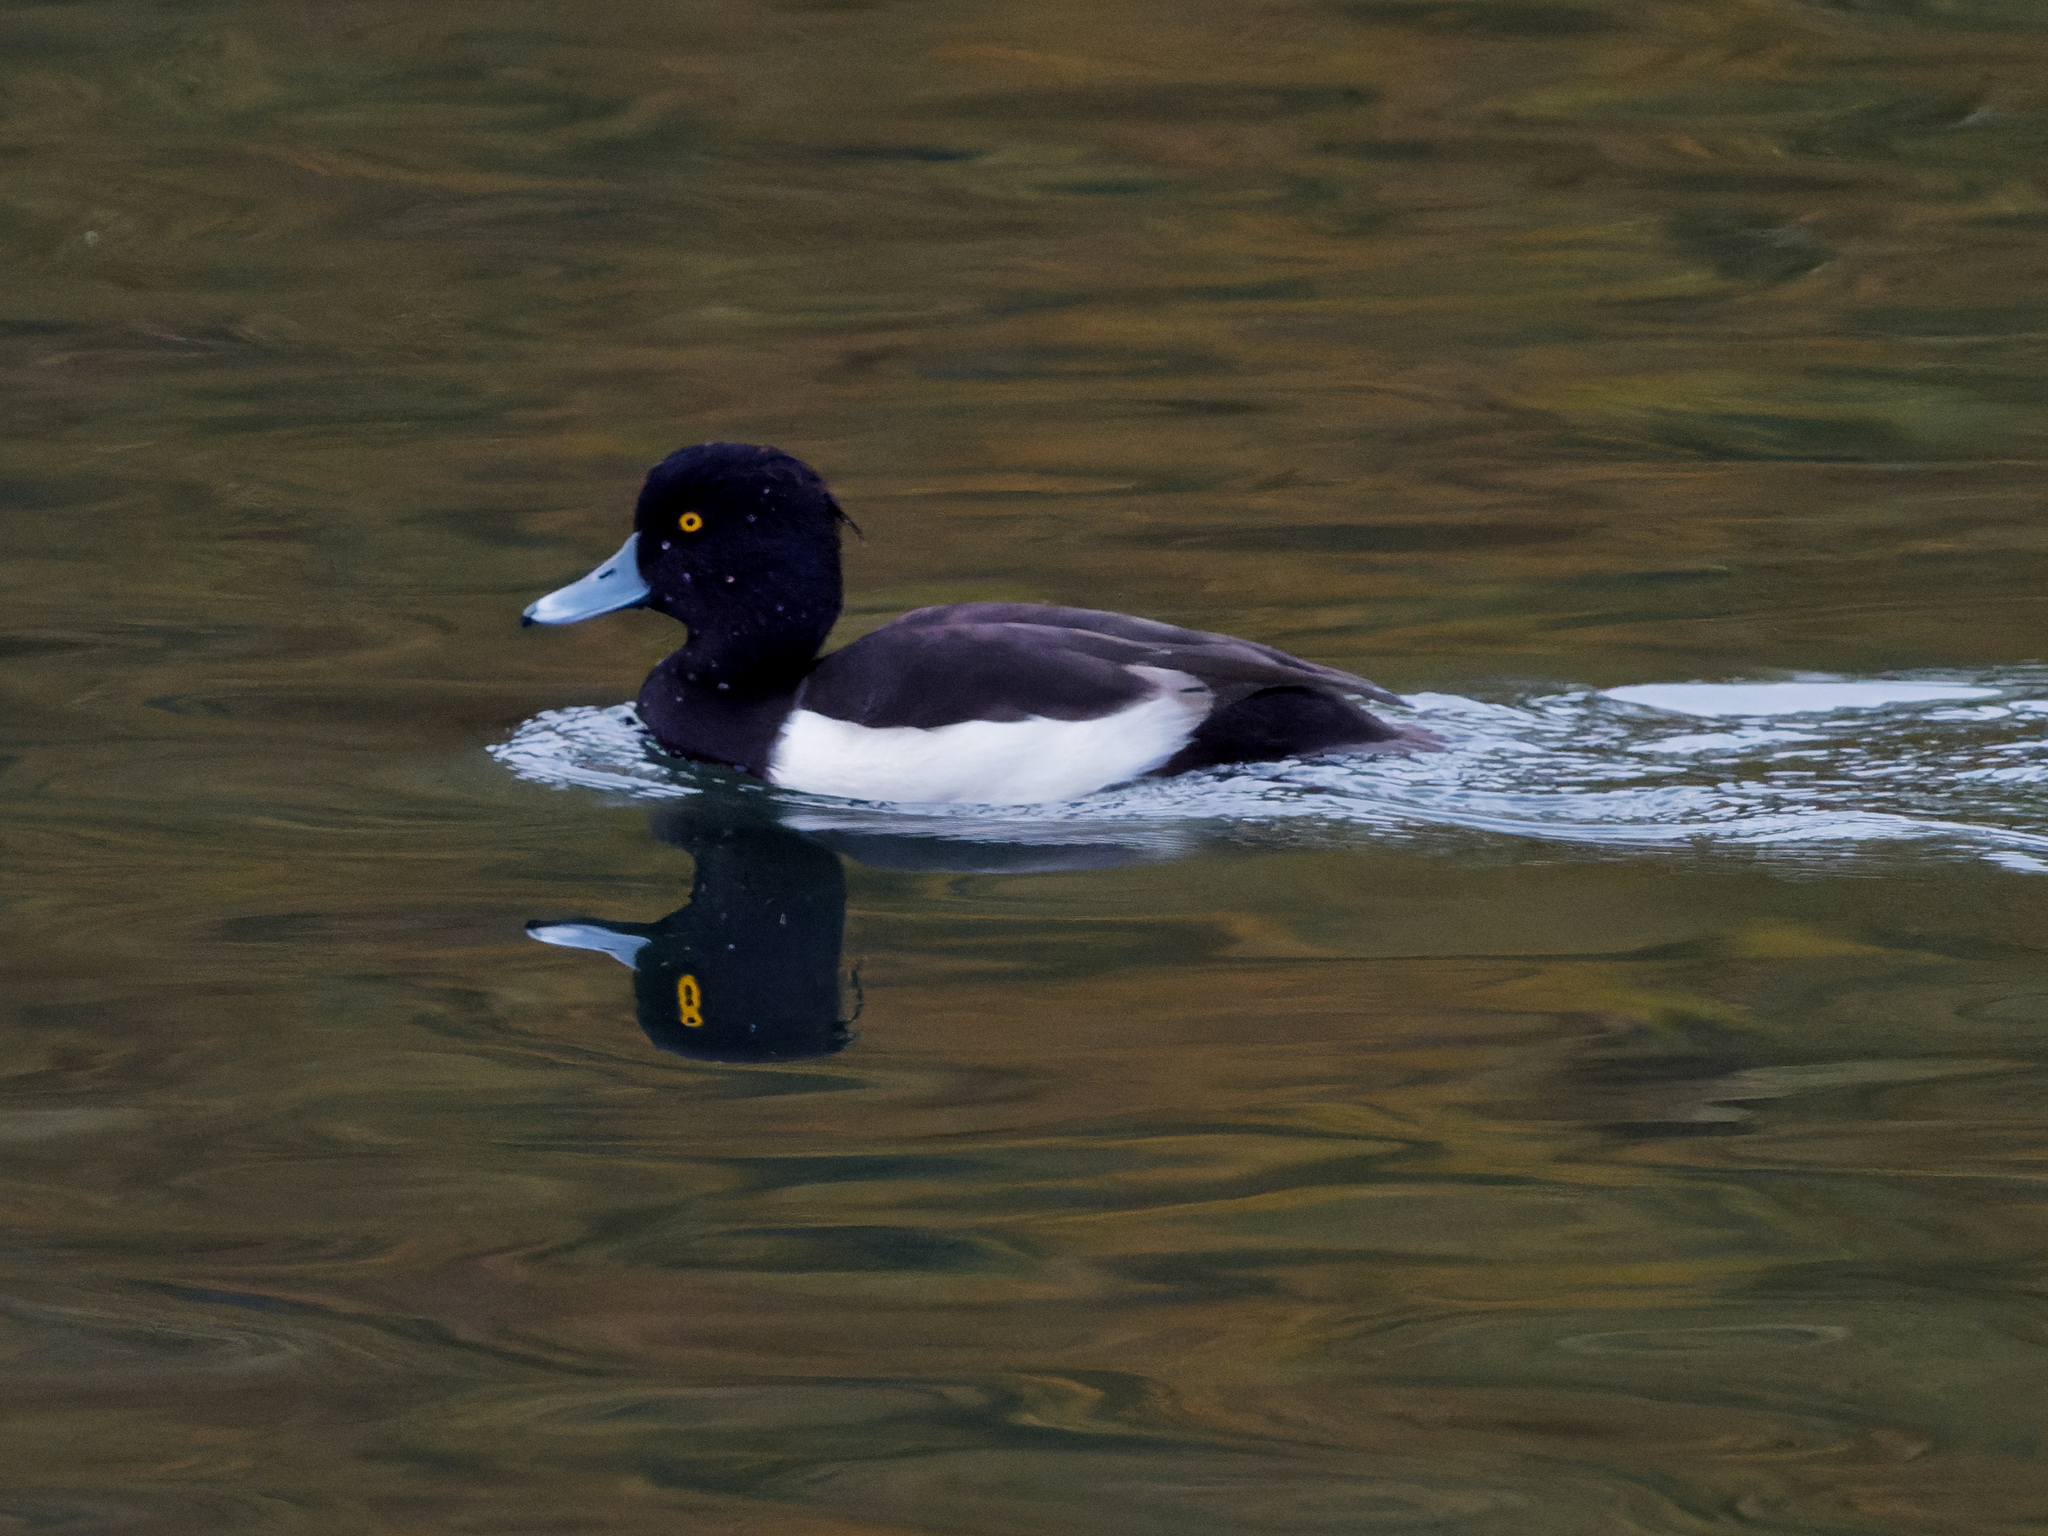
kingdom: Animalia
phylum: Chordata
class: Aves
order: Anseriformes
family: Anatidae
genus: Aythya
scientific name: Aythya fuligula
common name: Tufted duck
